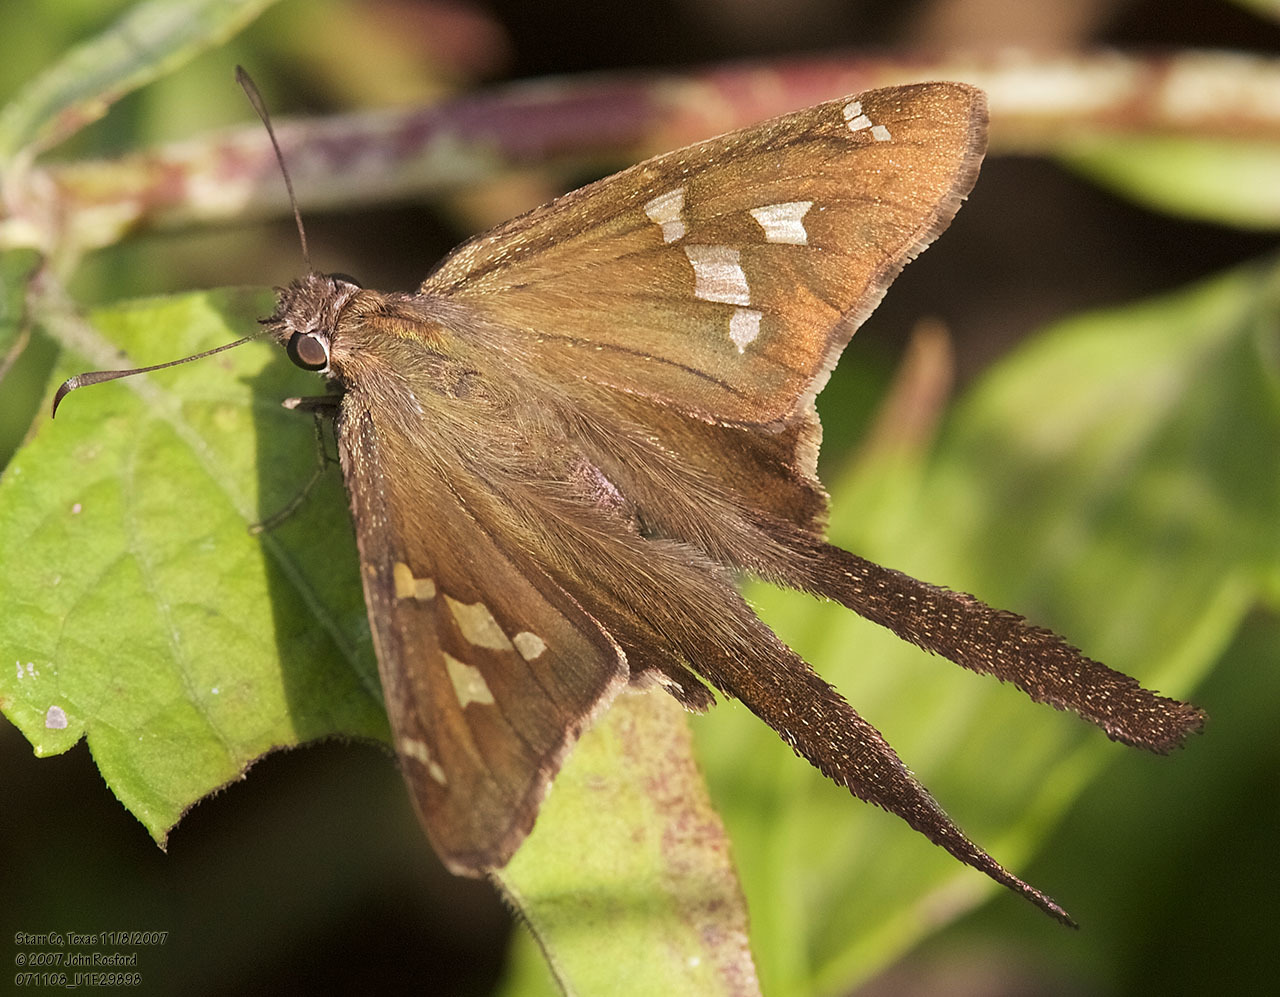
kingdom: Animalia
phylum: Arthropoda
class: Insecta
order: Lepidoptera
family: Hesperiidae
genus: Chioides
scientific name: Chioides catillus
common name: Silverbanded skipper
